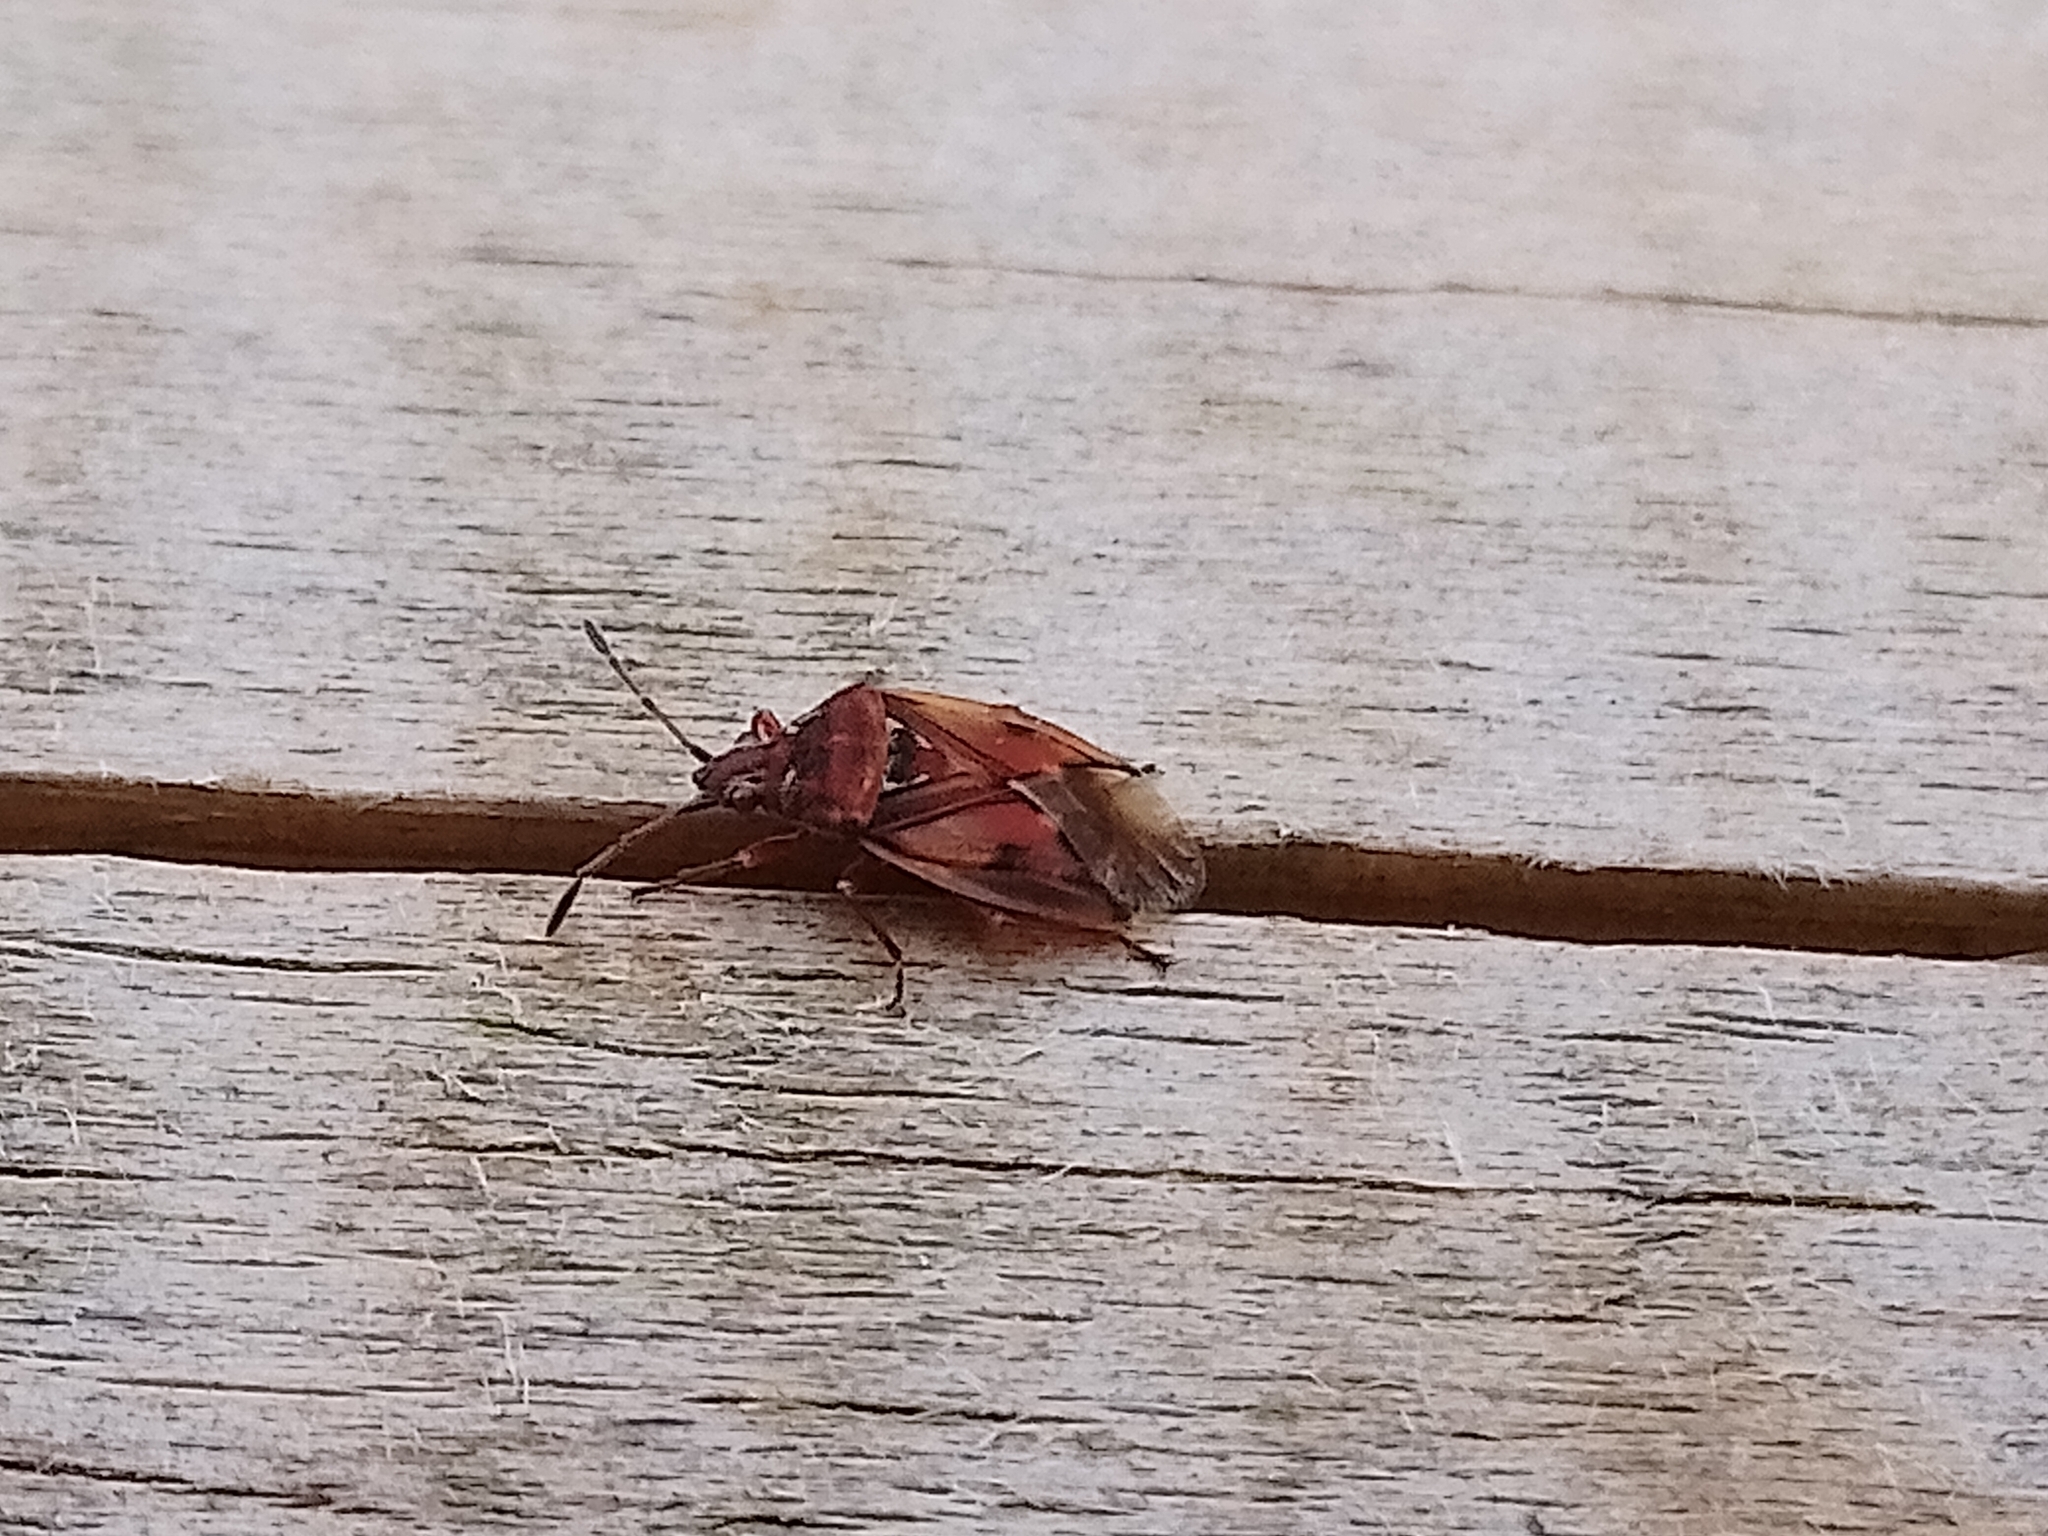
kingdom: Animalia
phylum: Arthropoda
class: Insecta
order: Hemiptera
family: Lygaeidae
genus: Kleidocerys
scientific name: Kleidocerys resedae
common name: Birch catkin bug
